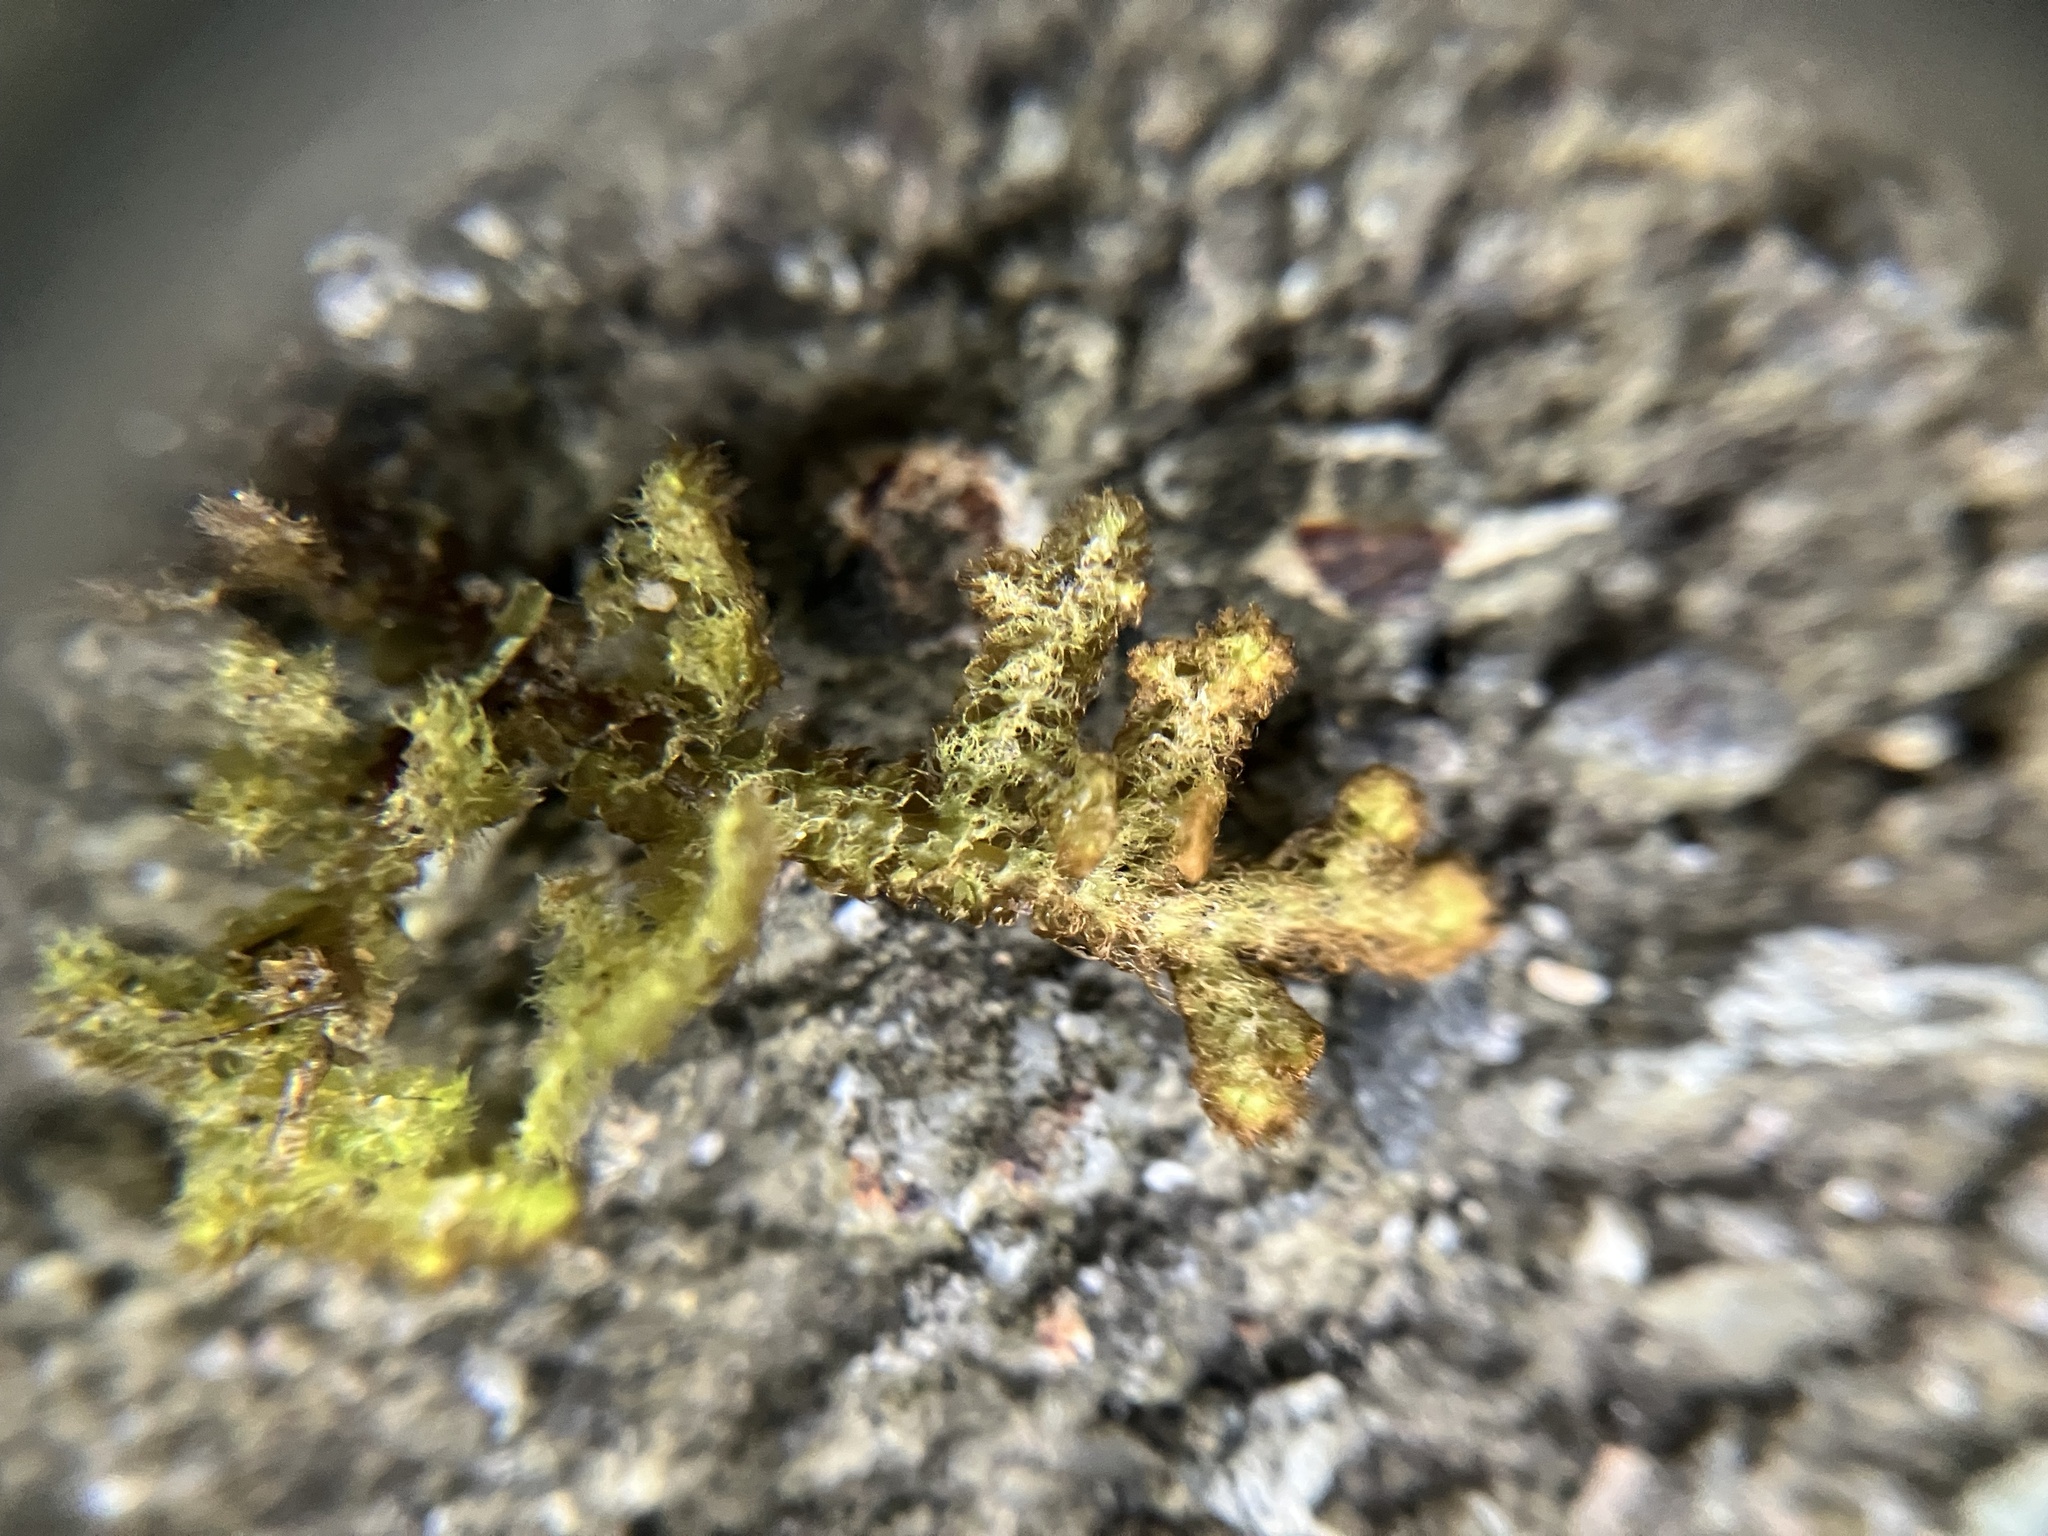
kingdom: Plantae
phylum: Marchantiophyta
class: Jungermanniopsida
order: Ptilidiales
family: Ptilidiaceae
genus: Ptilidium
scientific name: Ptilidium ciliare
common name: Ciliate fringewort
